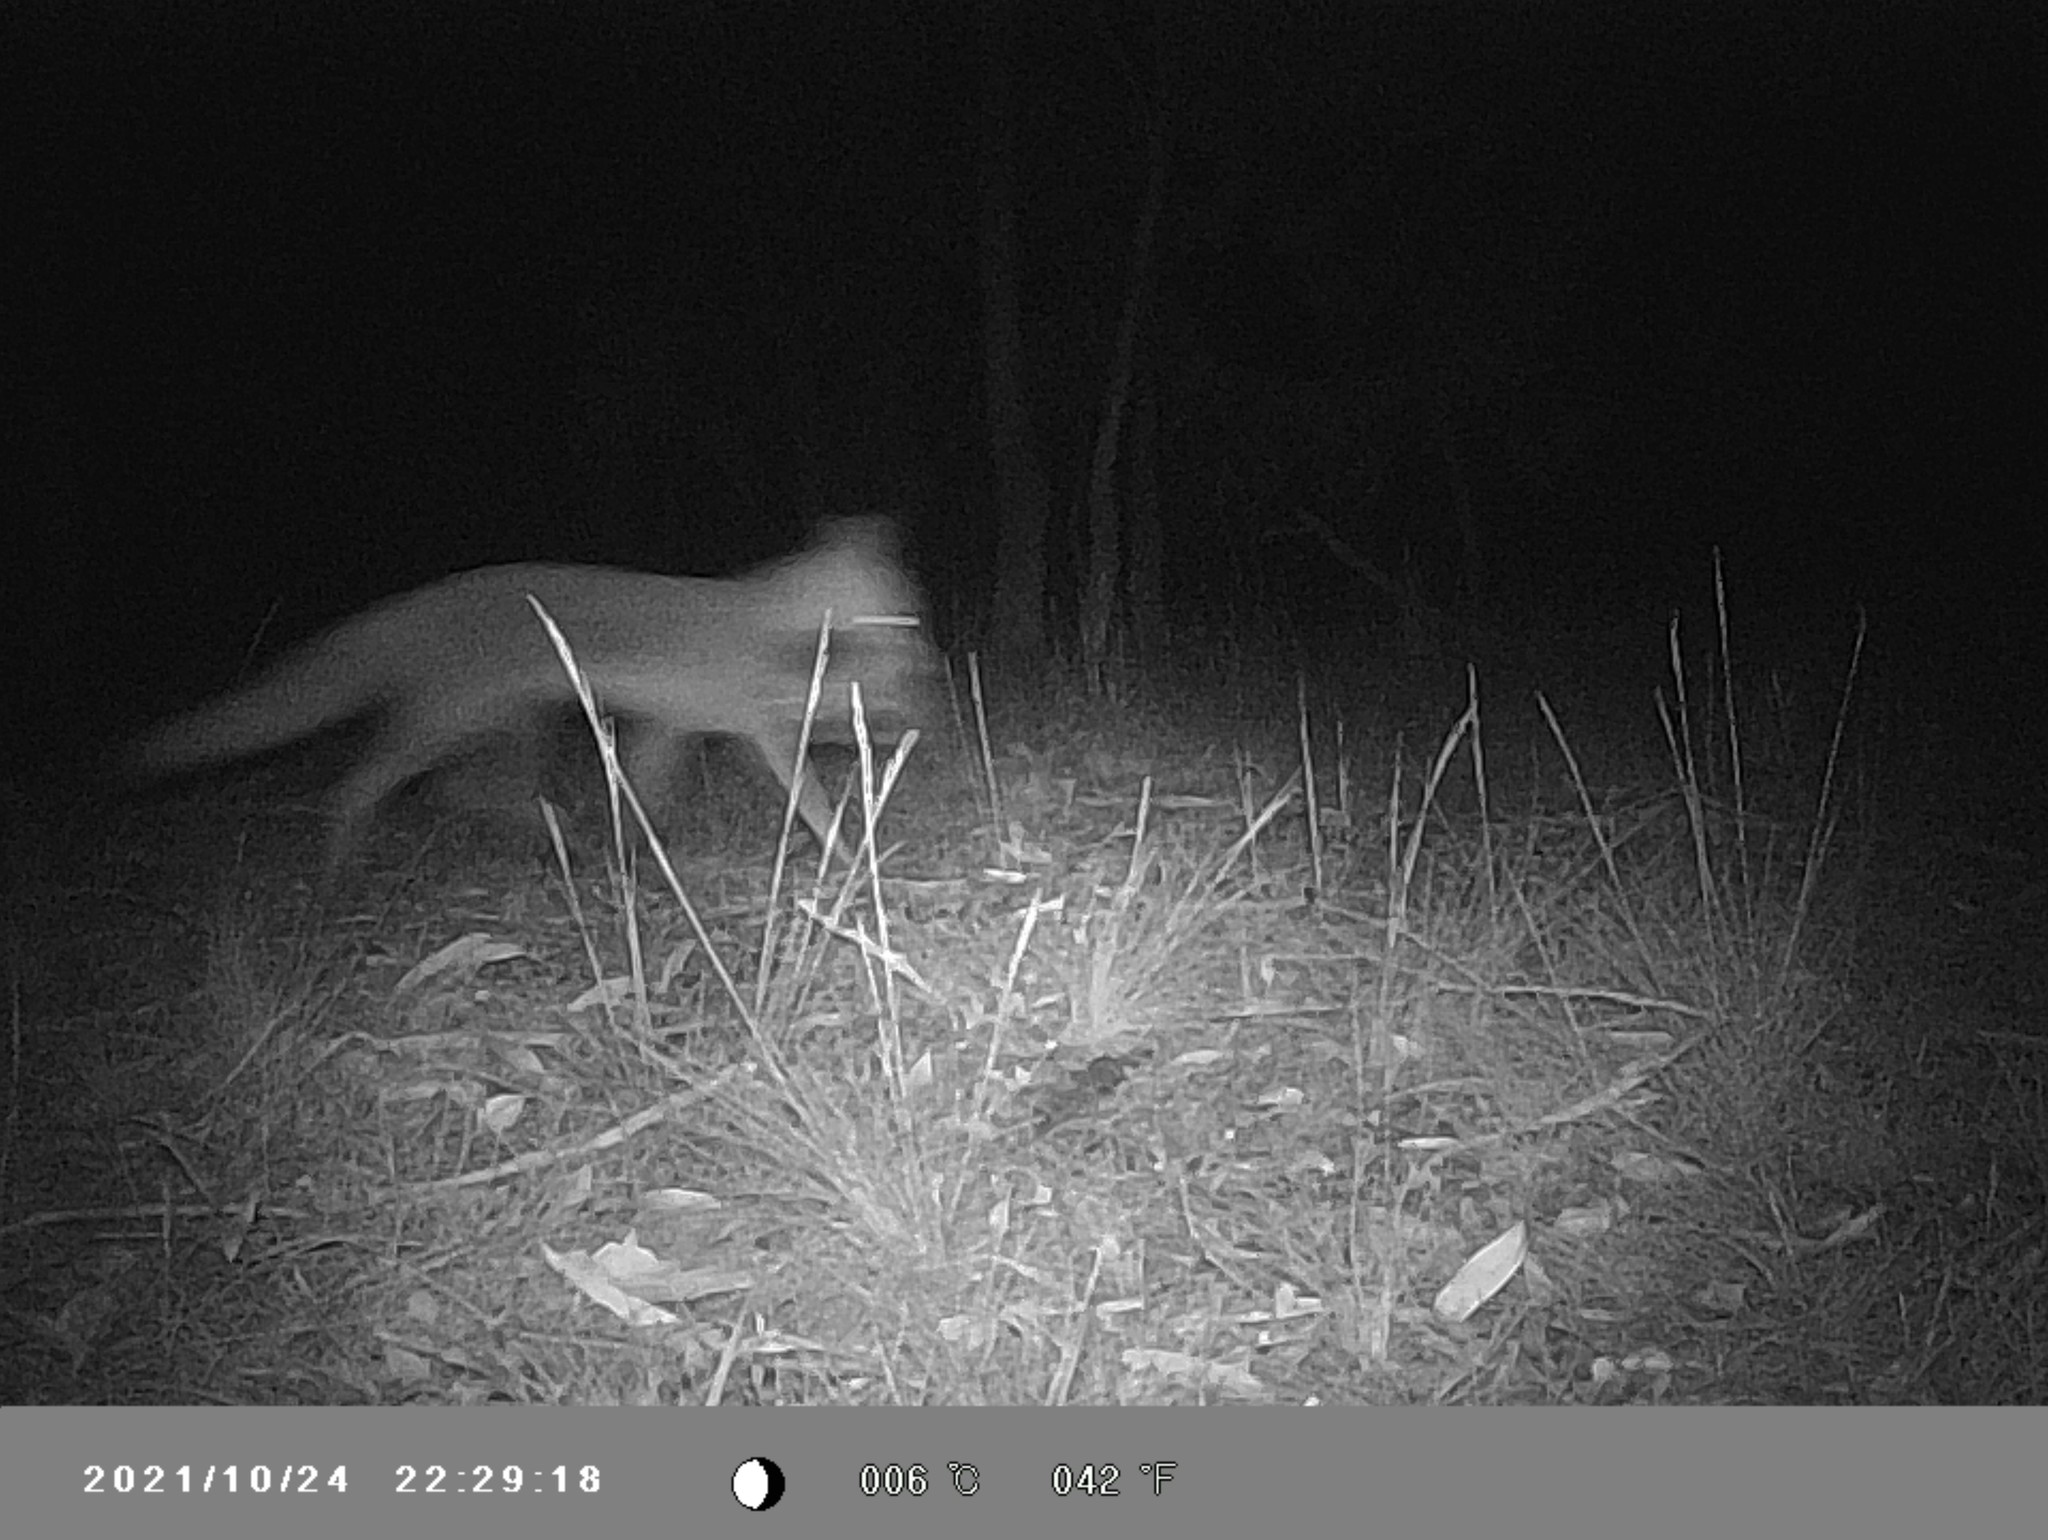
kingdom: Animalia
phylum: Chordata
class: Mammalia
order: Carnivora
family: Canidae
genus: Vulpes
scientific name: Vulpes vulpes
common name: Red fox
